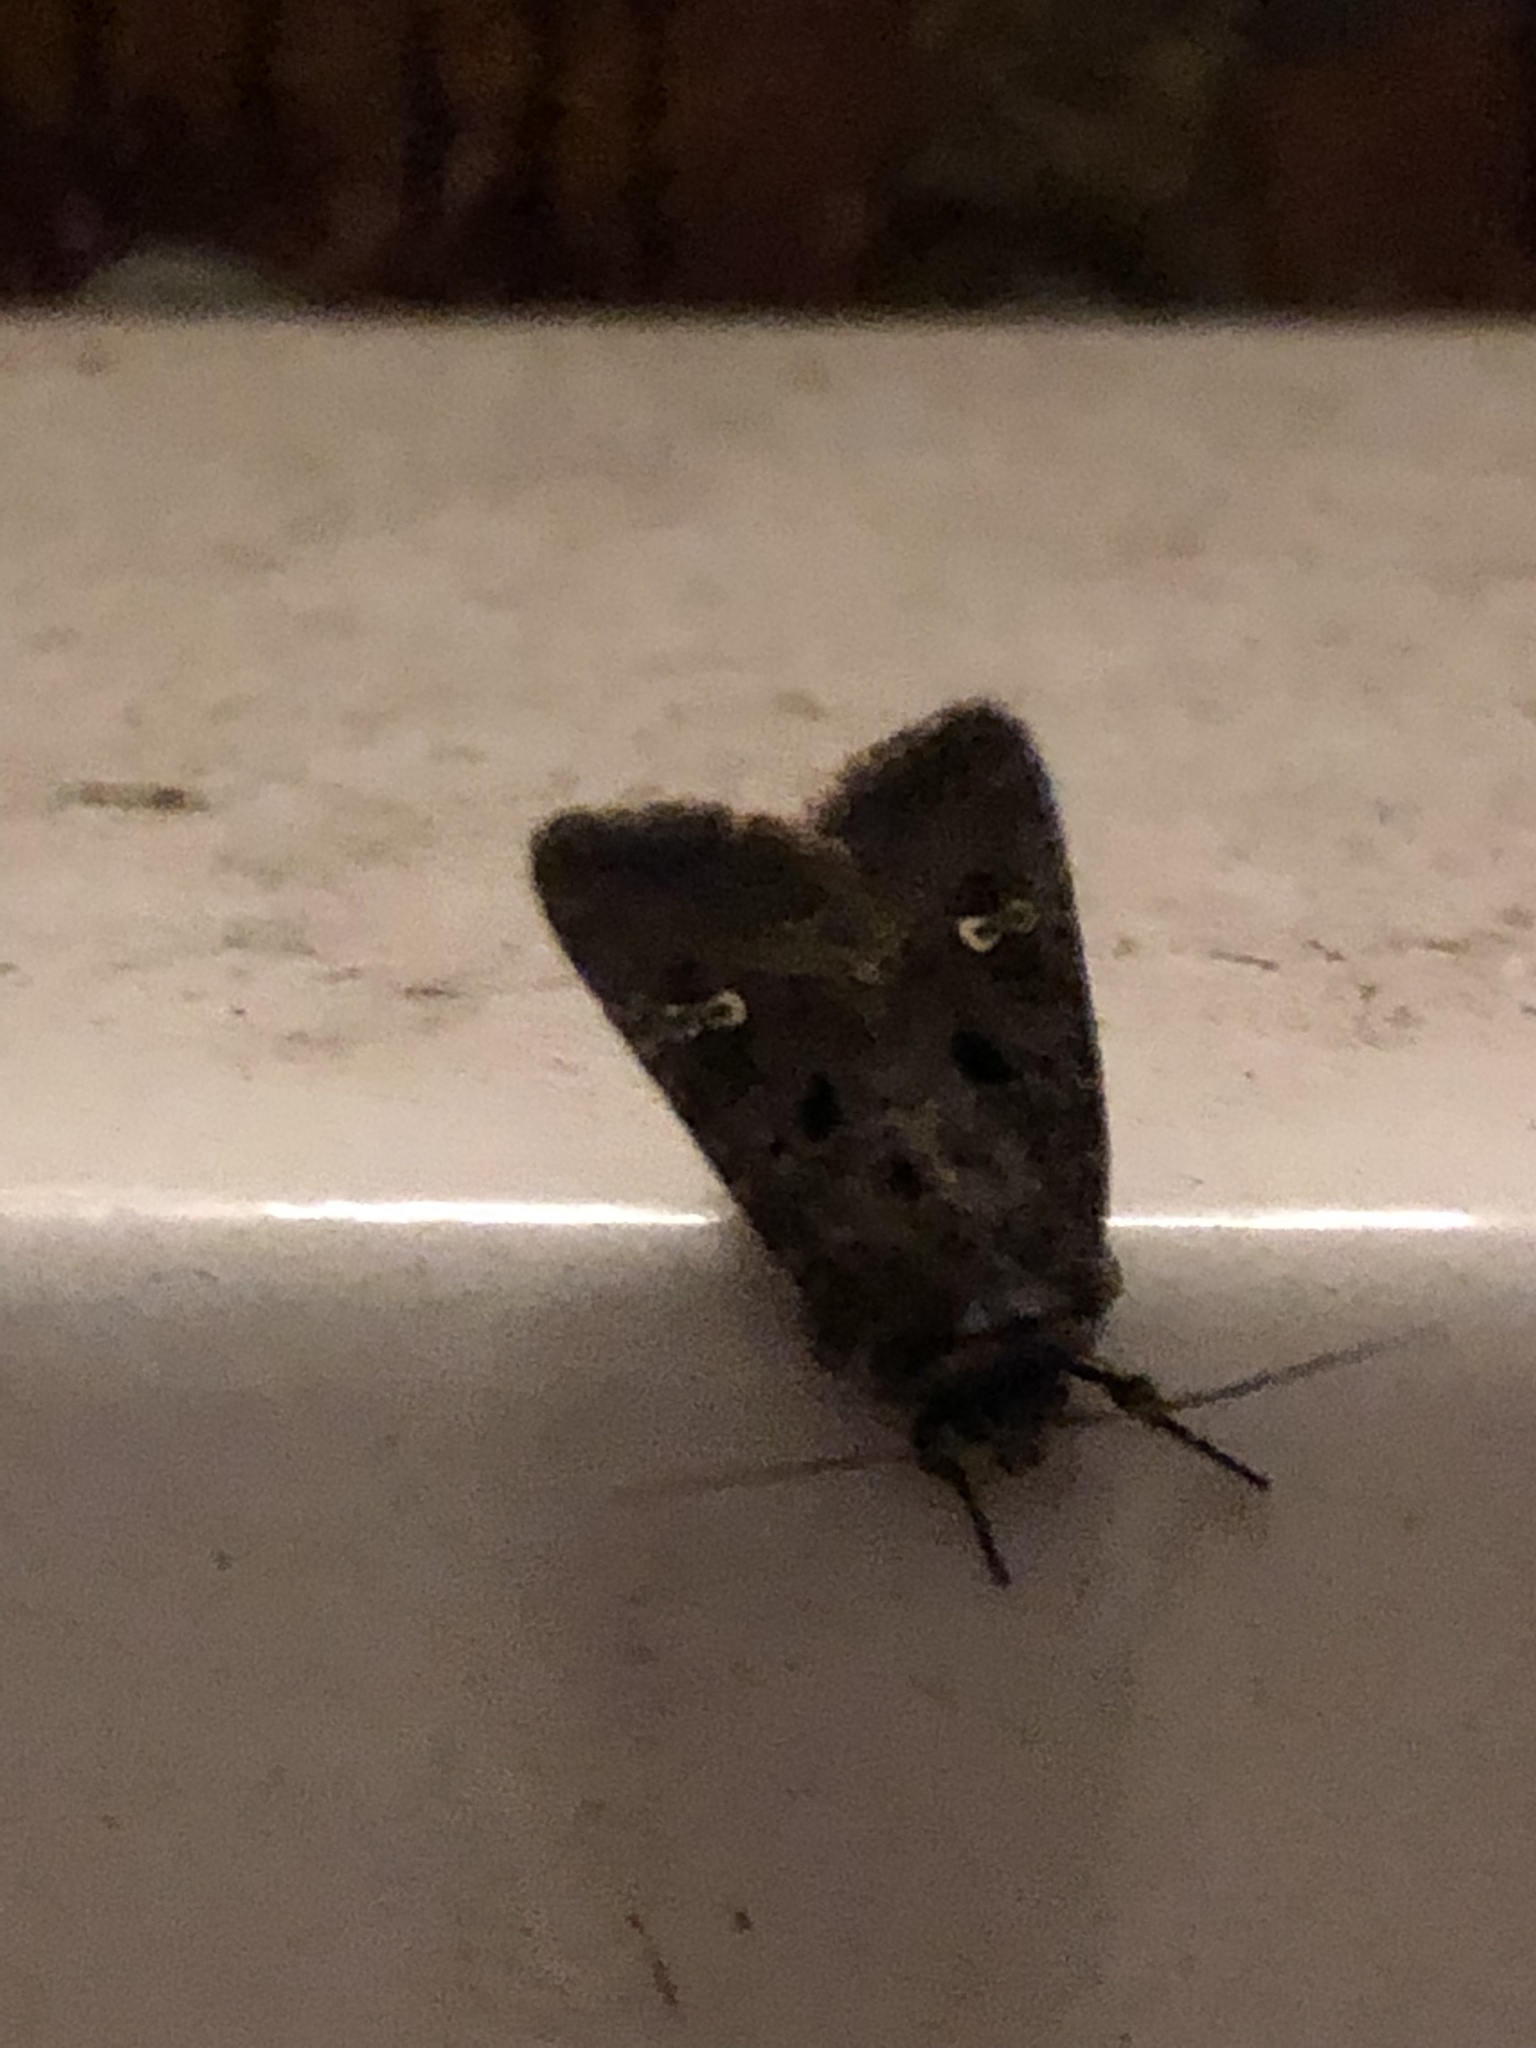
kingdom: Animalia
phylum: Arthropoda
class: Insecta
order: Lepidoptera
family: Noctuidae
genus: Lacinipolia
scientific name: Lacinipolia renigera
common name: Kidney-spotted minor
